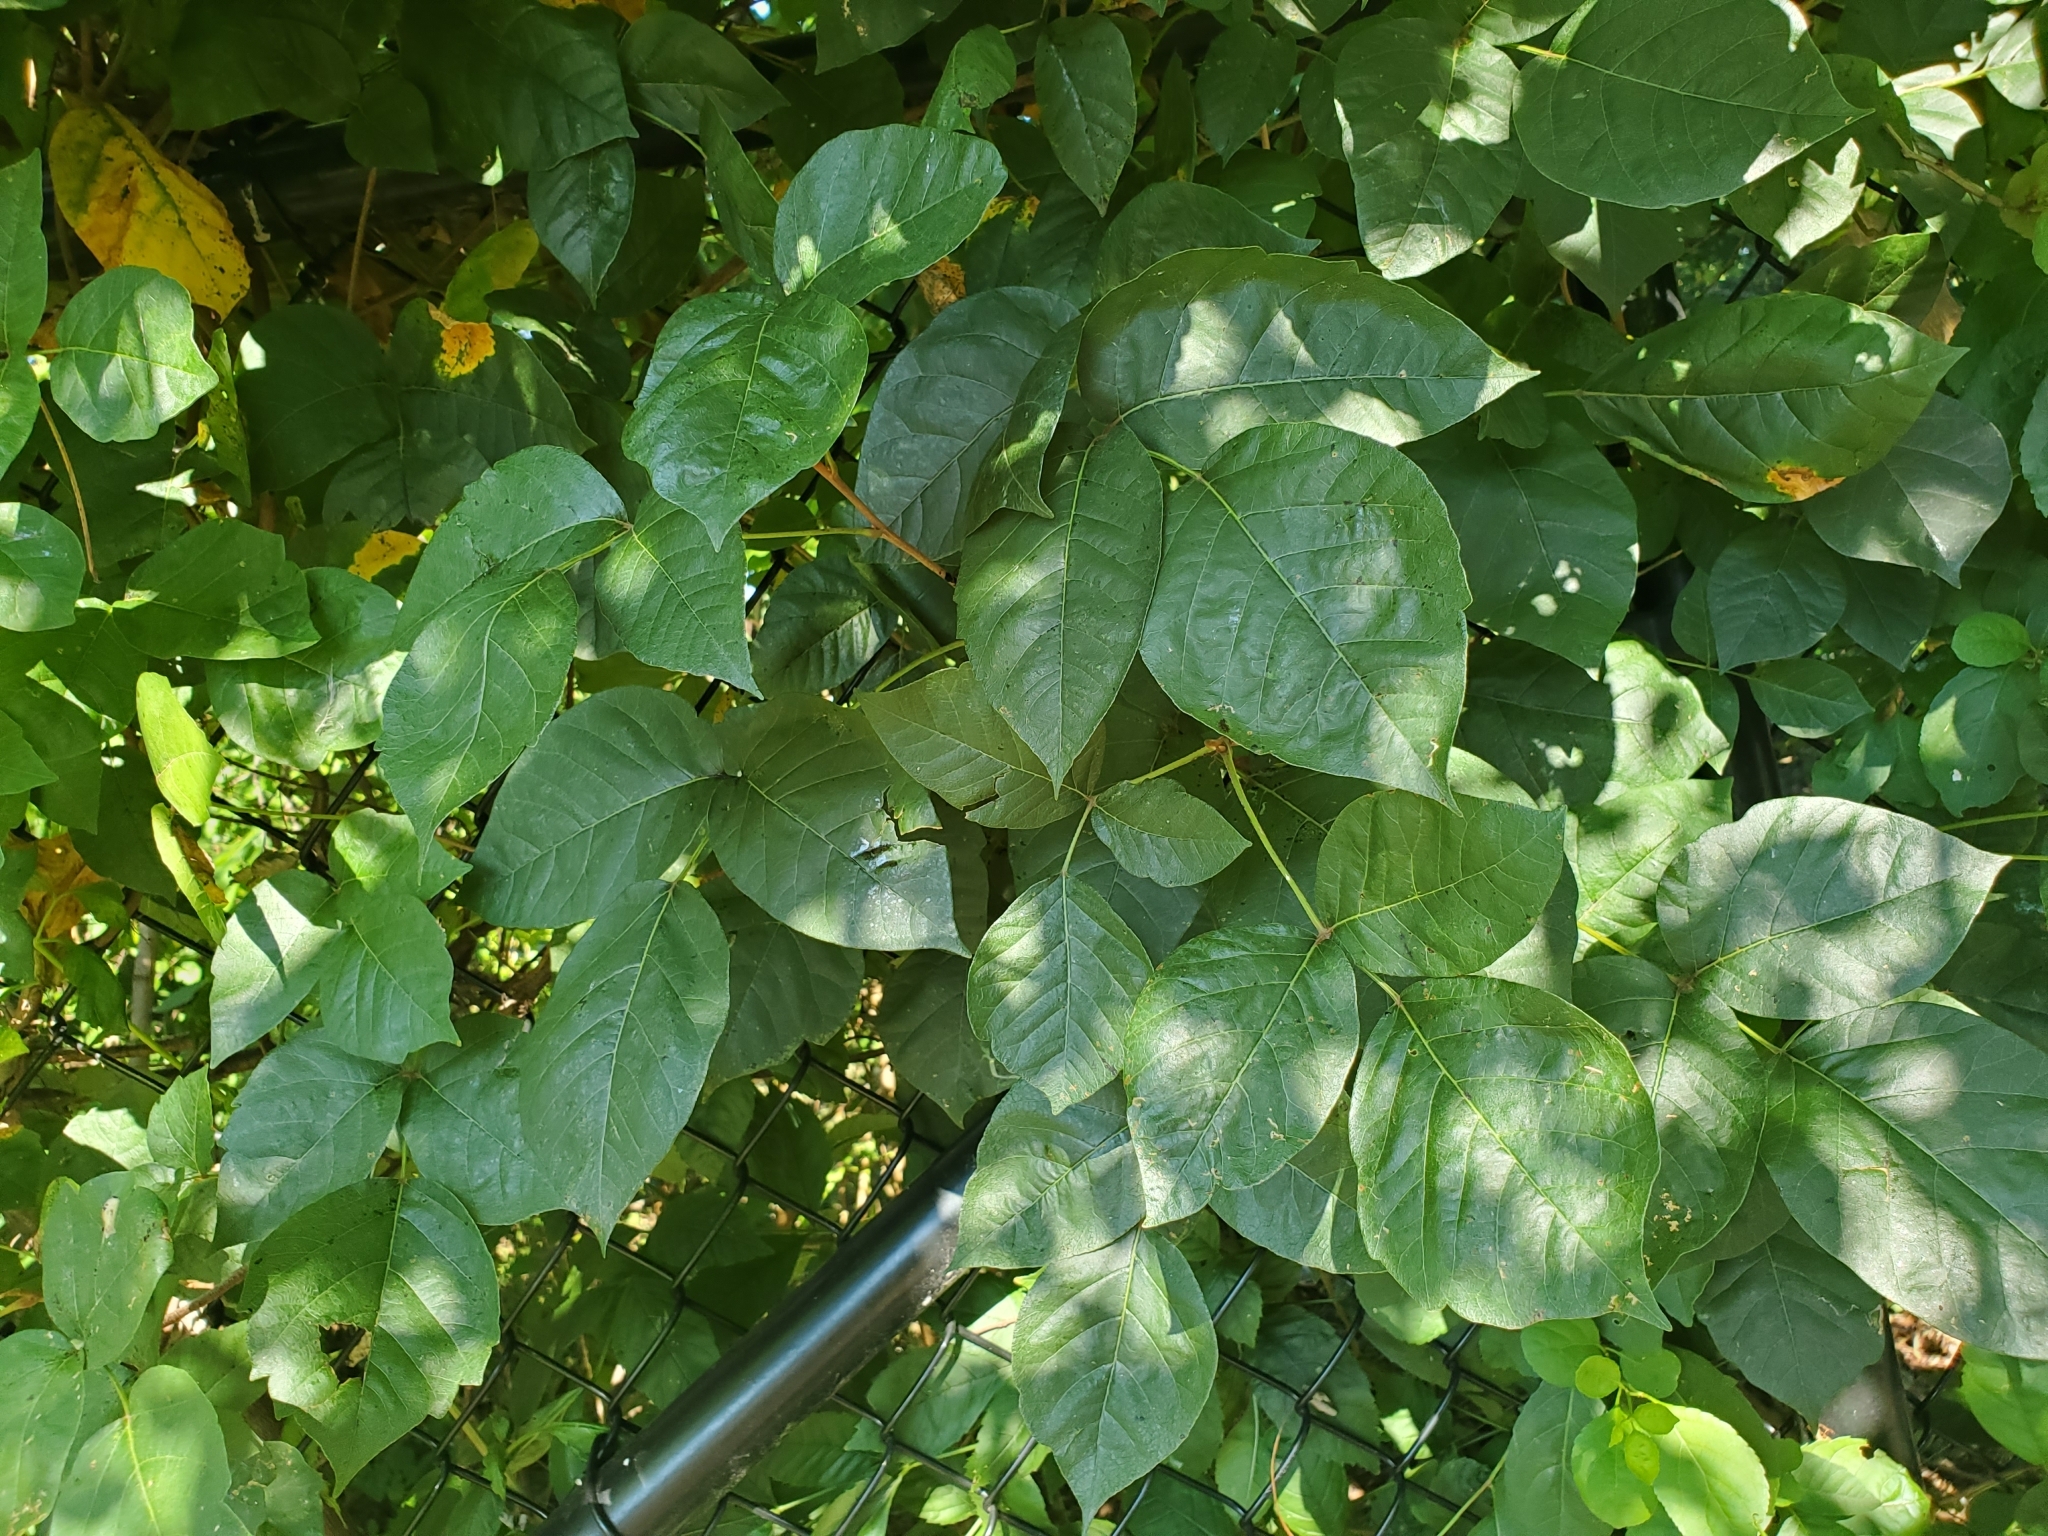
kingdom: Plantae
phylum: Tracheophyta
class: Magnoliopsida
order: Sapindales
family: Anacardiaceae
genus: Toxicodendron
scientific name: Toxicodendron radicans
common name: Poison ivy
